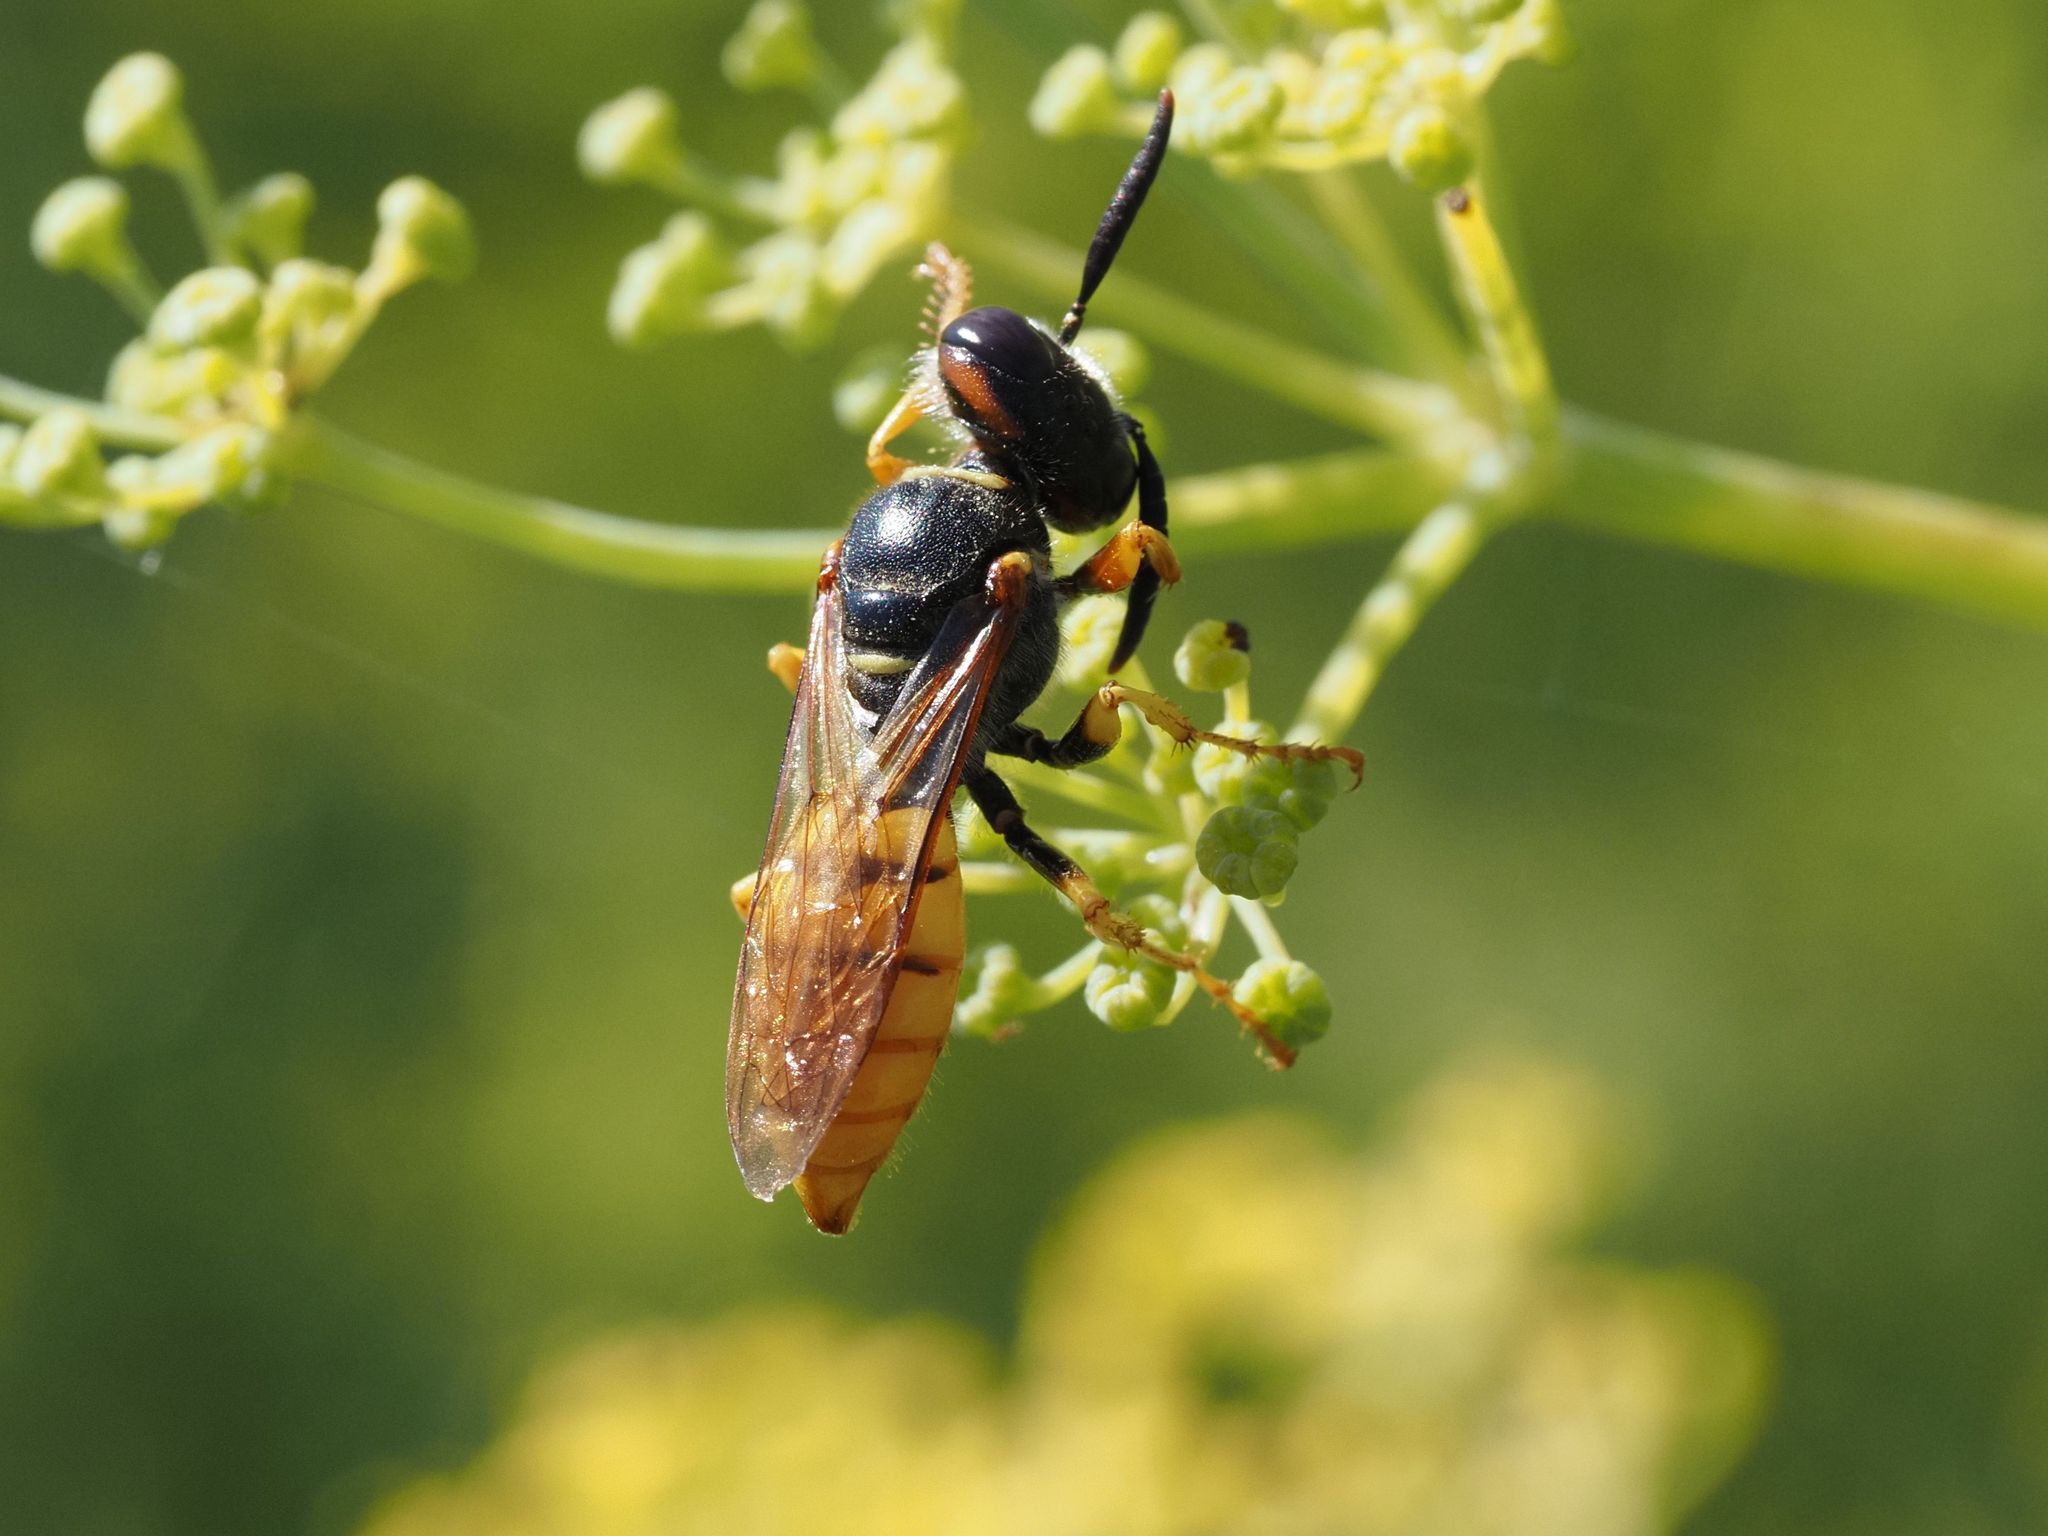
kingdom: Animalia
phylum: Arthropoda
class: Insecta
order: Hymenoptera
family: Crabronidae
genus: Philanthus
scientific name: Philanthus triangulum
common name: Bee wolf
